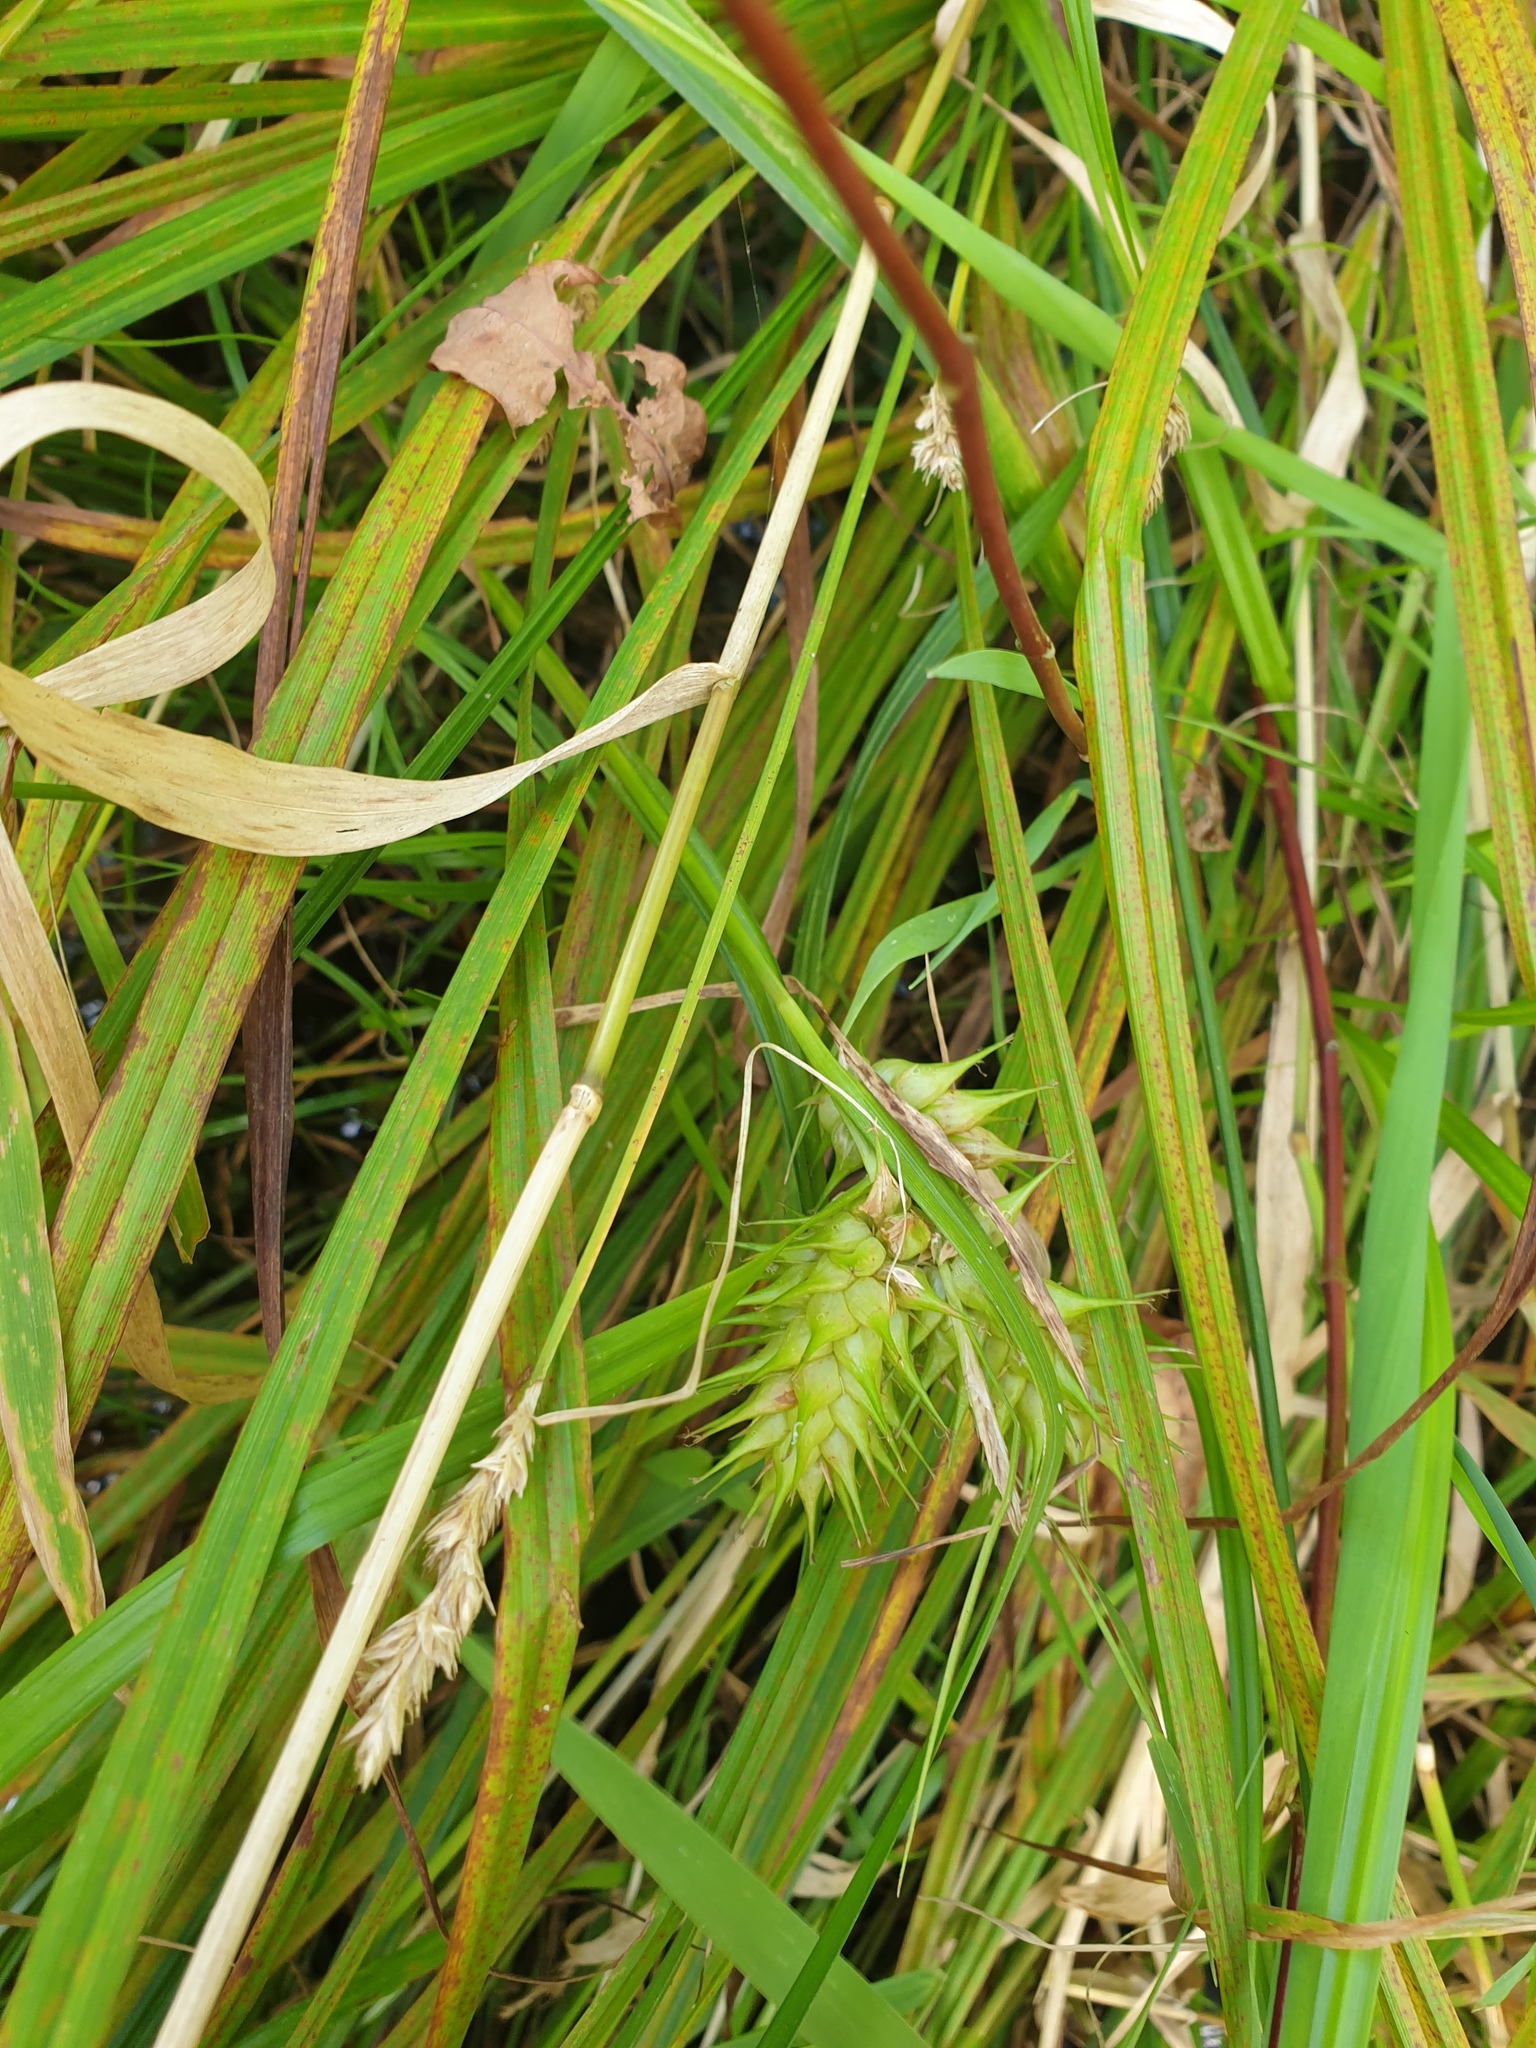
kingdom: Plantae
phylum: Tracheophyta
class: Liliopsida
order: Poales
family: Cyperaceae
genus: Carex
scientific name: Carex lupulina
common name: Hop sedge
